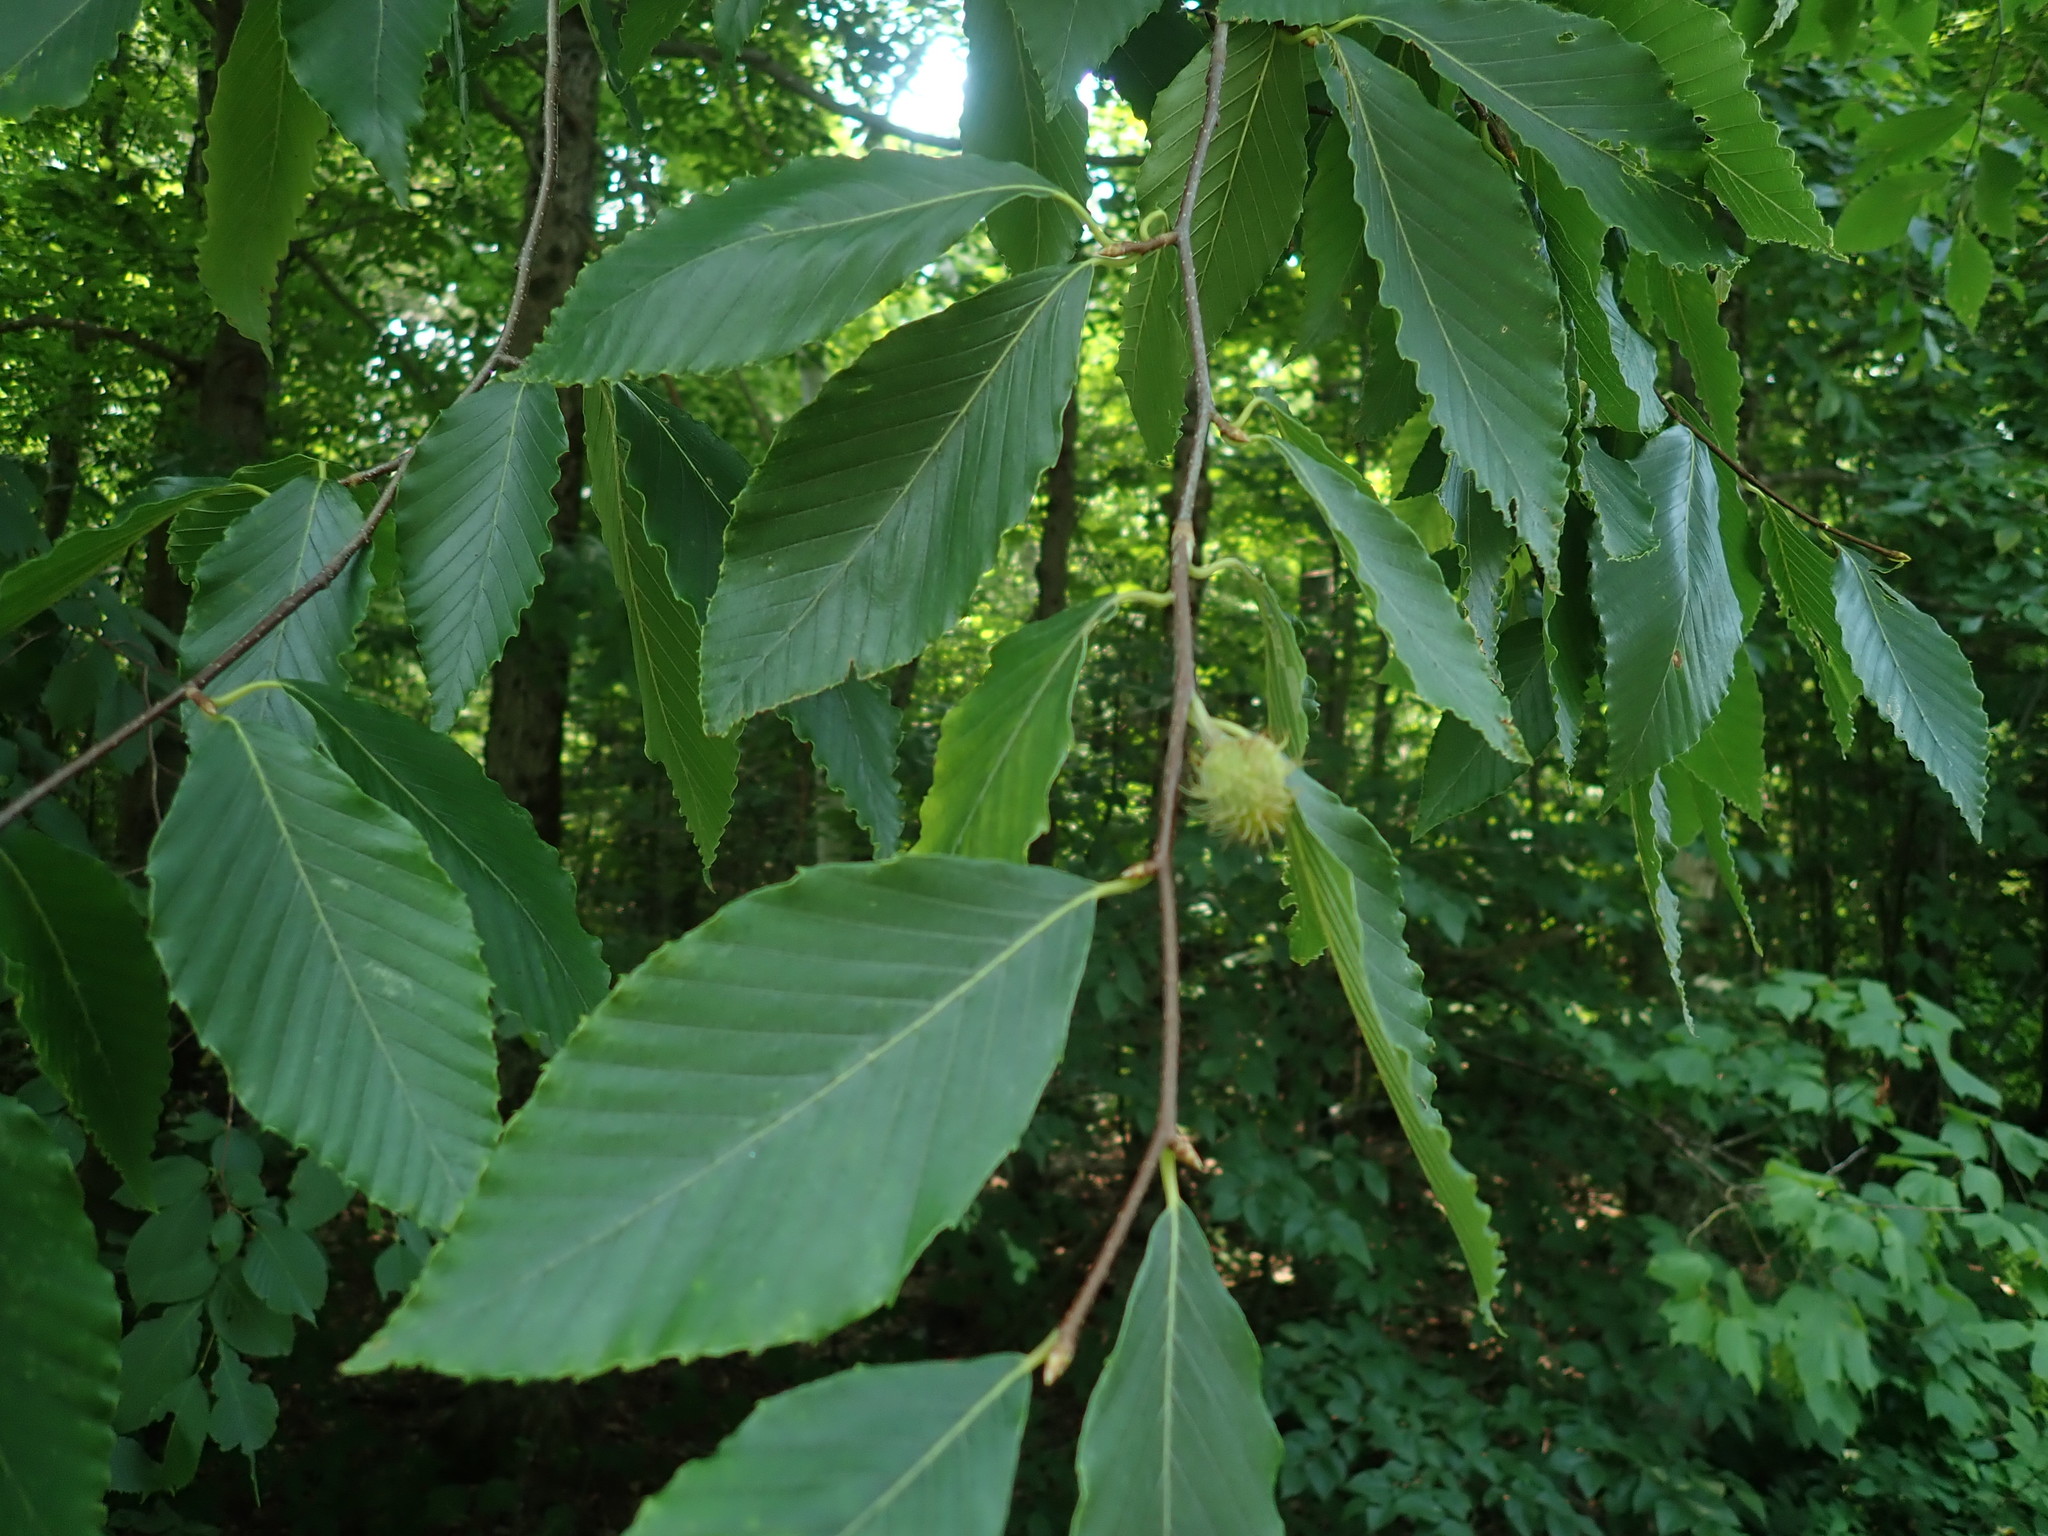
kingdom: Plantae
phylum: Tracheophyta
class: Magnoliopsida
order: Fagales
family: Fagaceae
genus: Fagus
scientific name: Fagus grandifolia
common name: American beech
